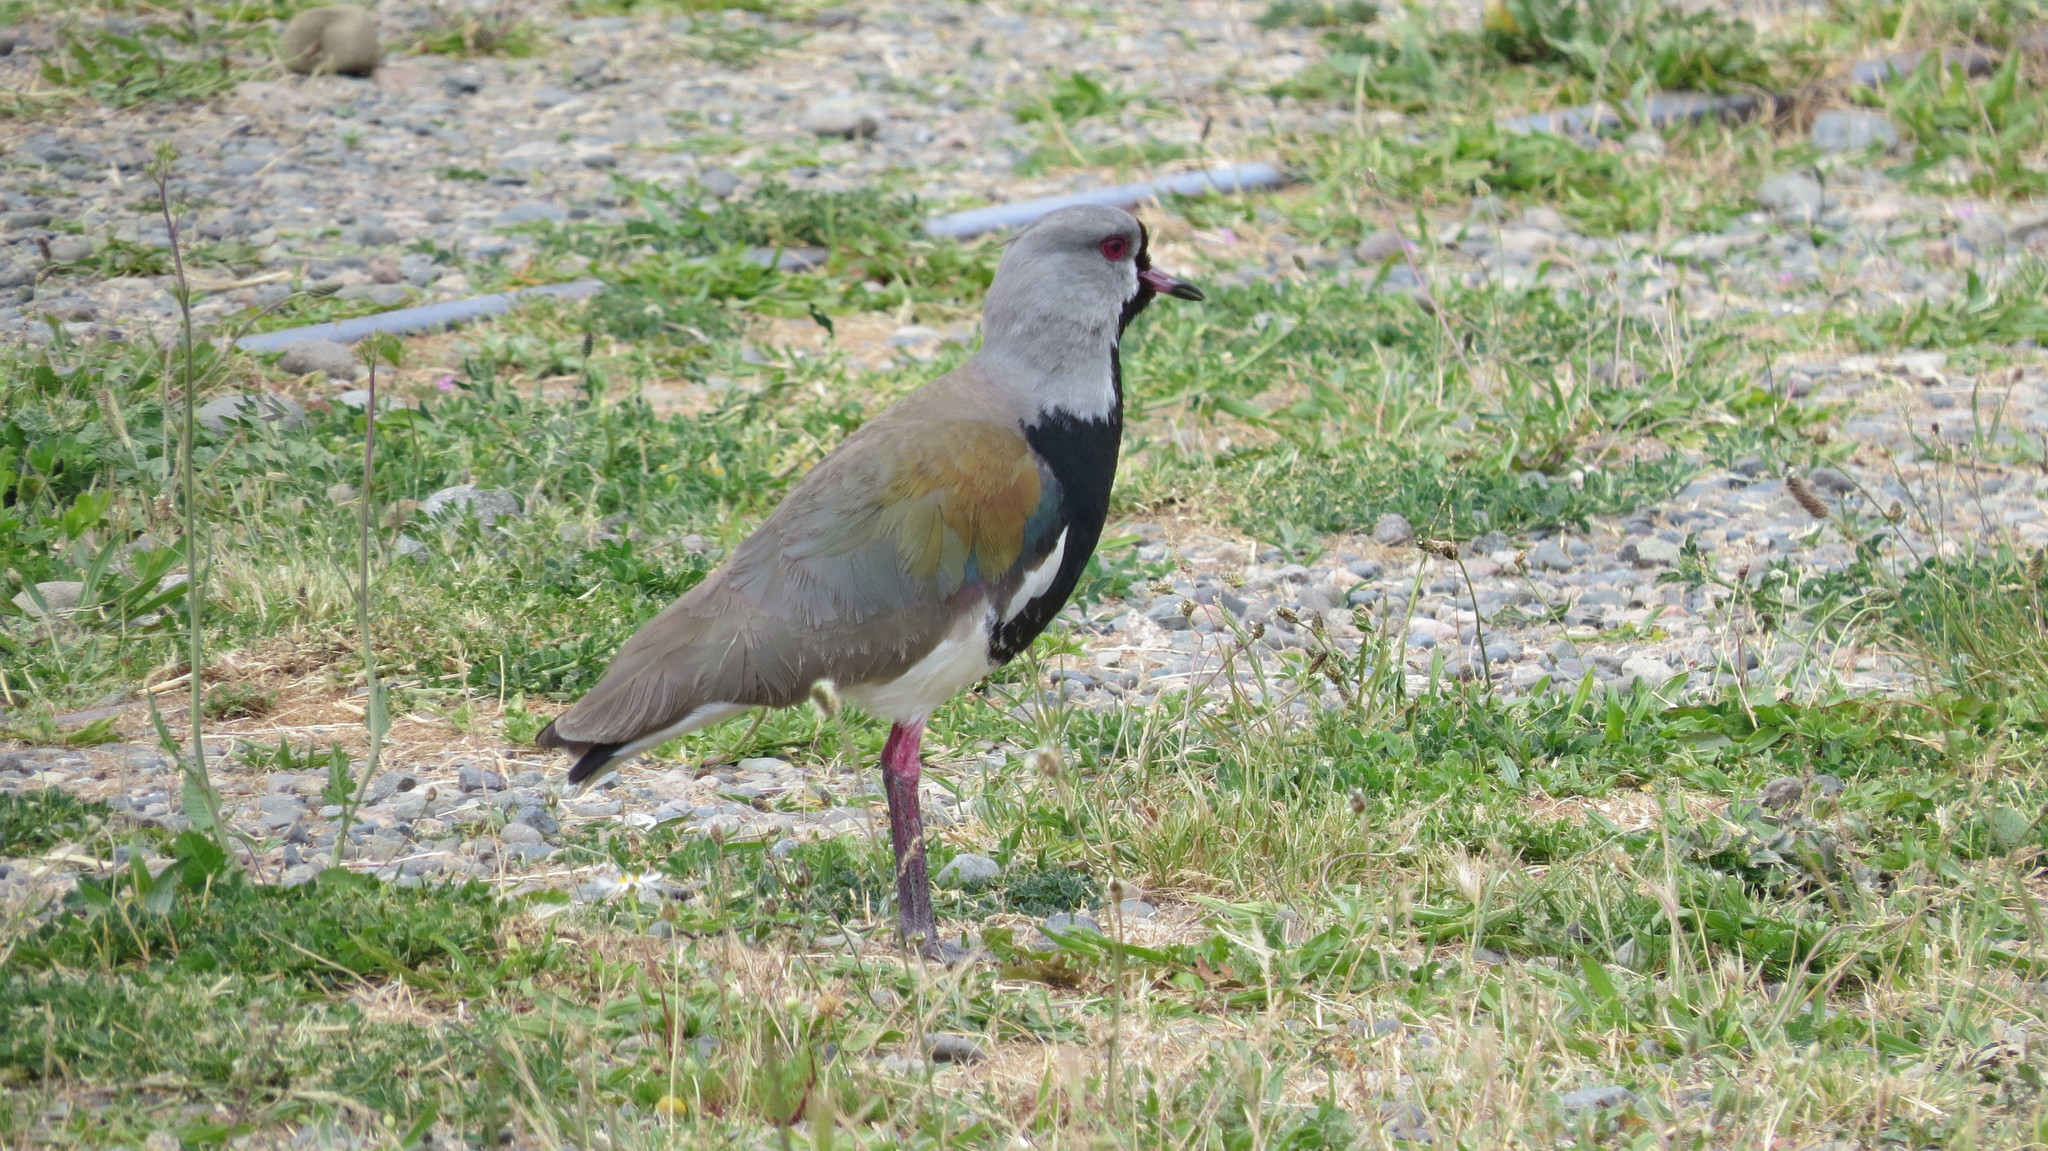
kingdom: Animalia
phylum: Chordata
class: Aves
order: Charadriiformes
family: Charadriidae
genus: Vanellus
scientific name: Vanellus chilensis
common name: Southern lapwing
